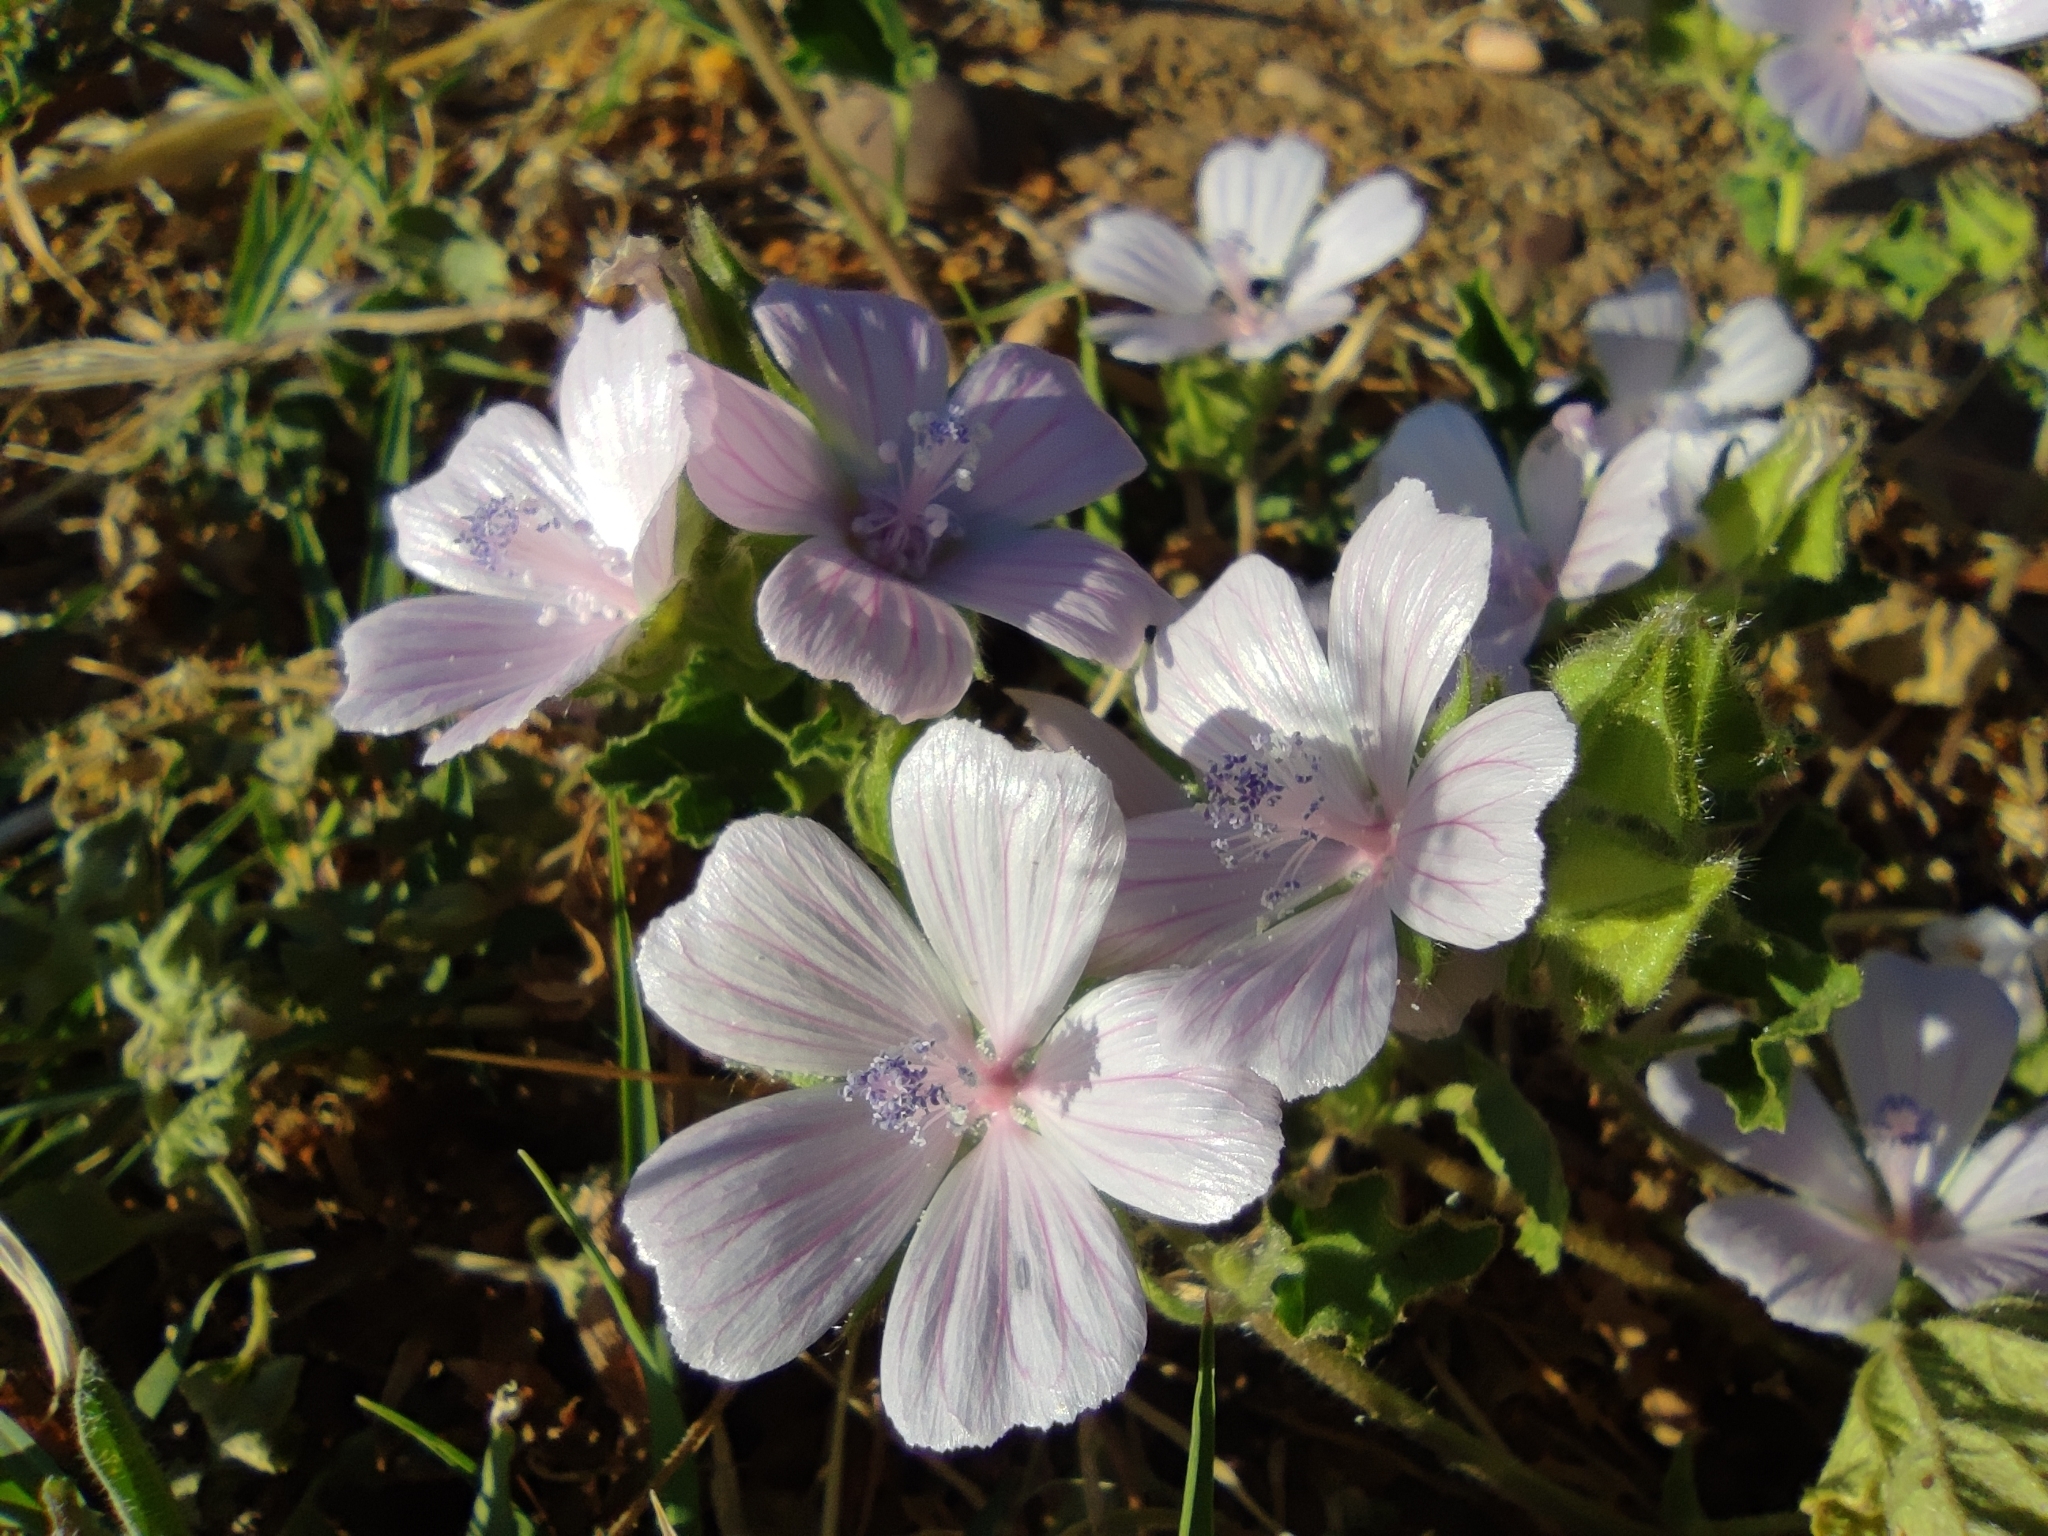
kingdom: Plantae
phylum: Tracheophyta
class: Magnoliopsida
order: Malvales
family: Malvaceae
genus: Malva
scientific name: Malva hispanica
